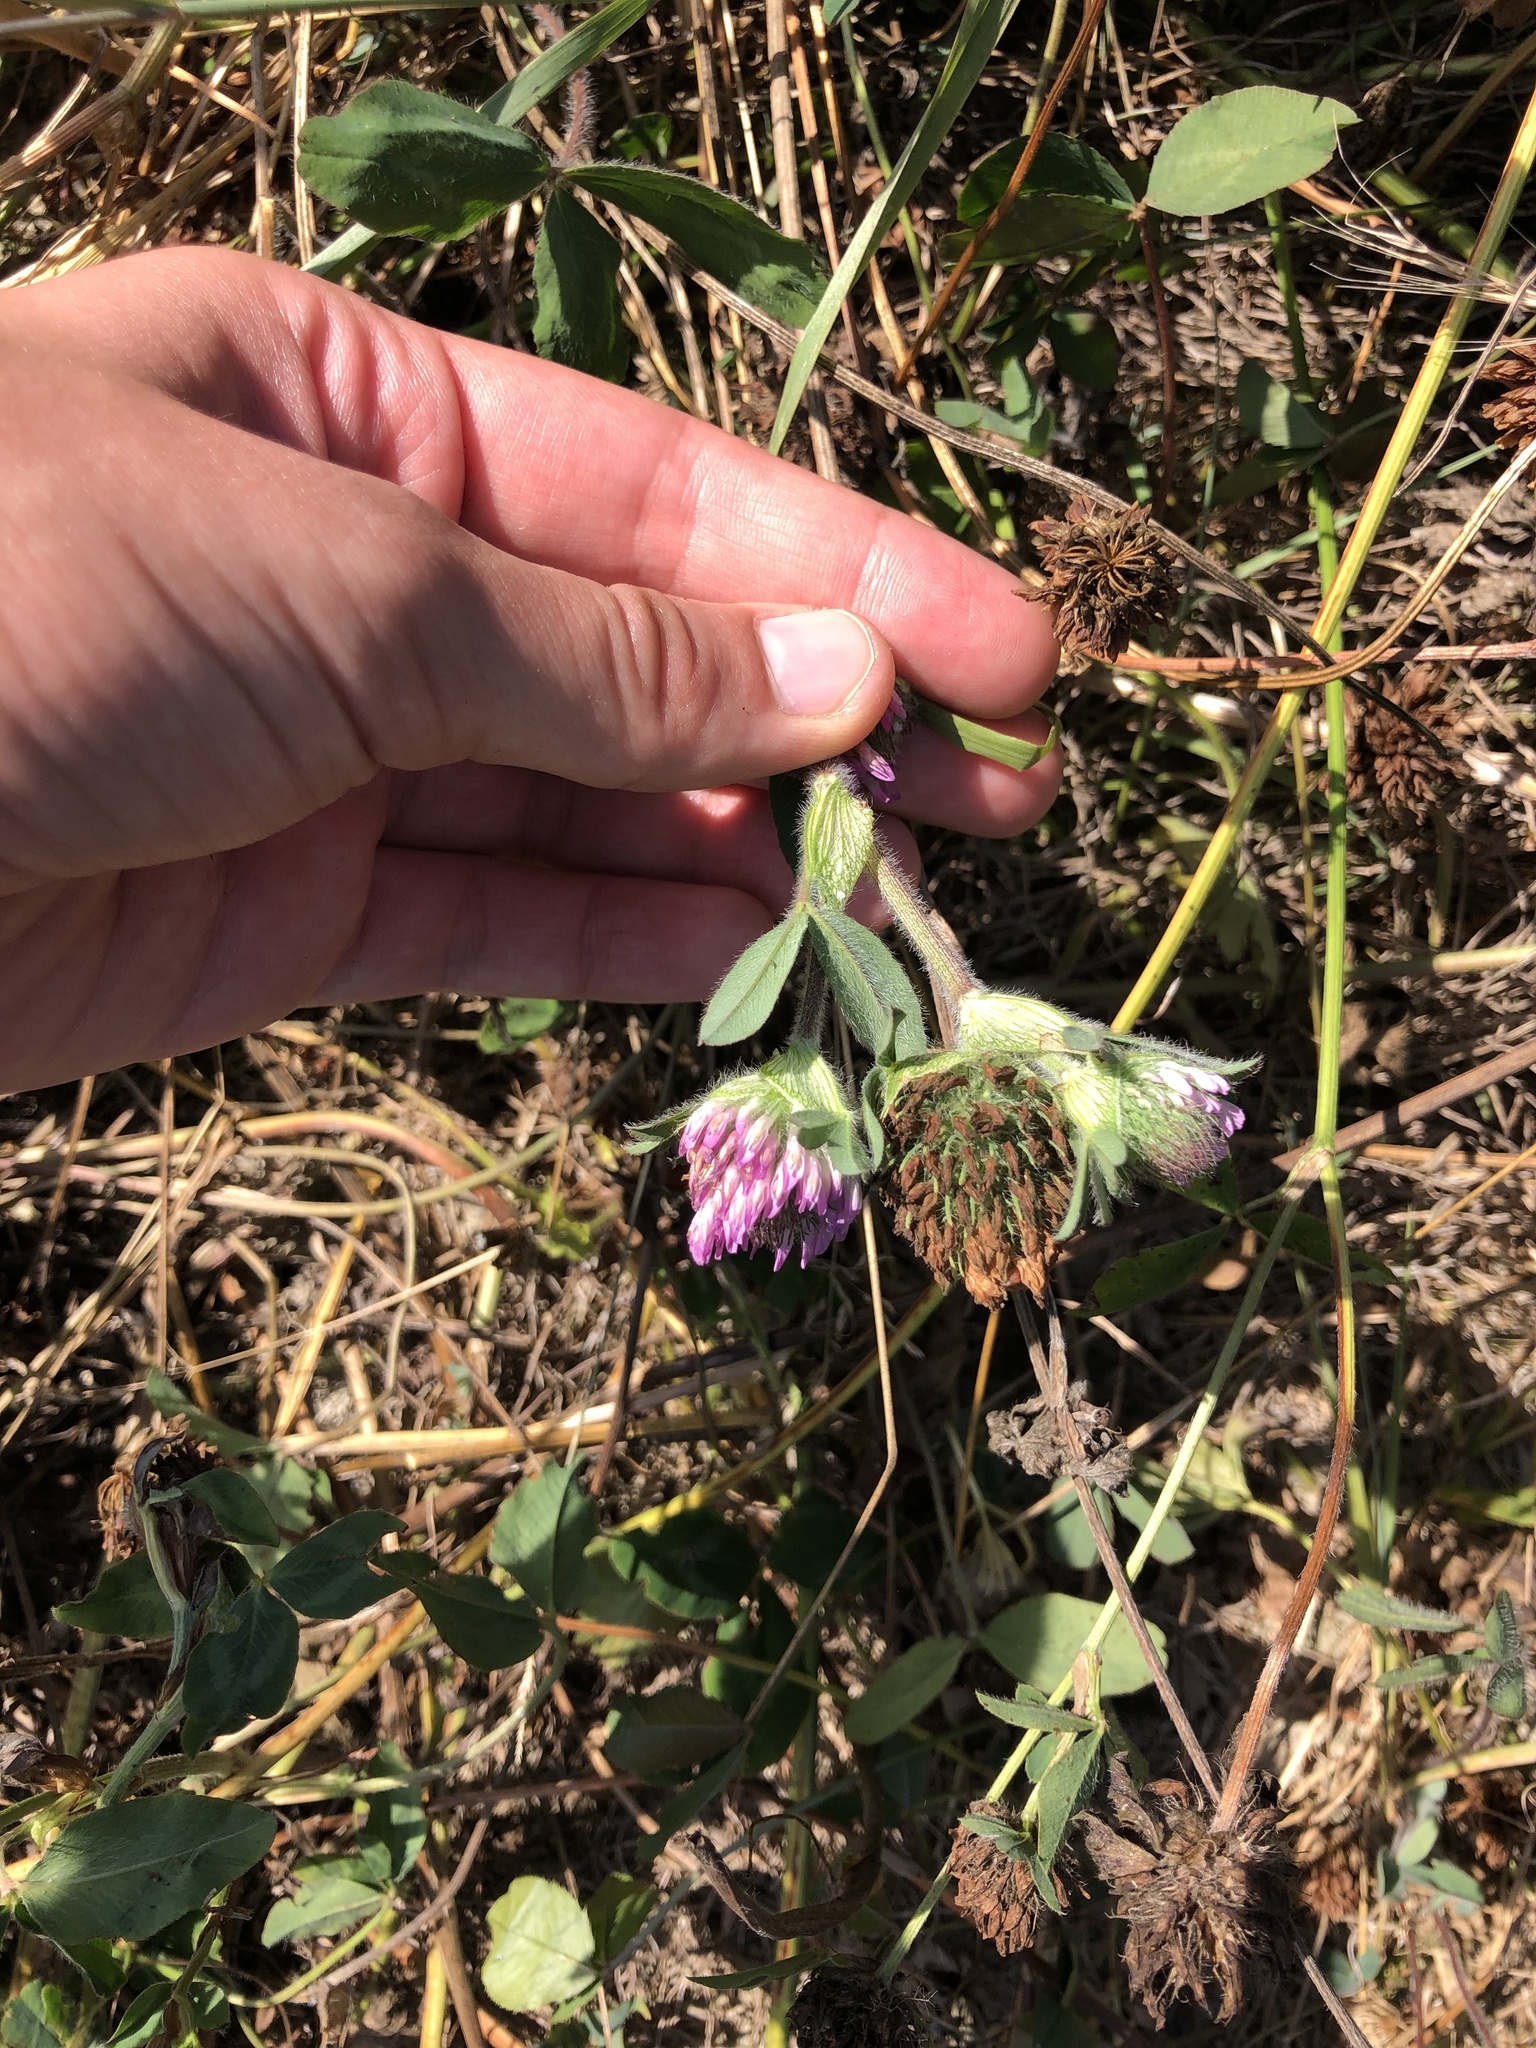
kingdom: Plantae
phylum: Tracheophyta
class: Magnoliopsida
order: Fabales
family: Fabaceae
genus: Trifolium
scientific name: Trifolium pratense
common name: Red clover
